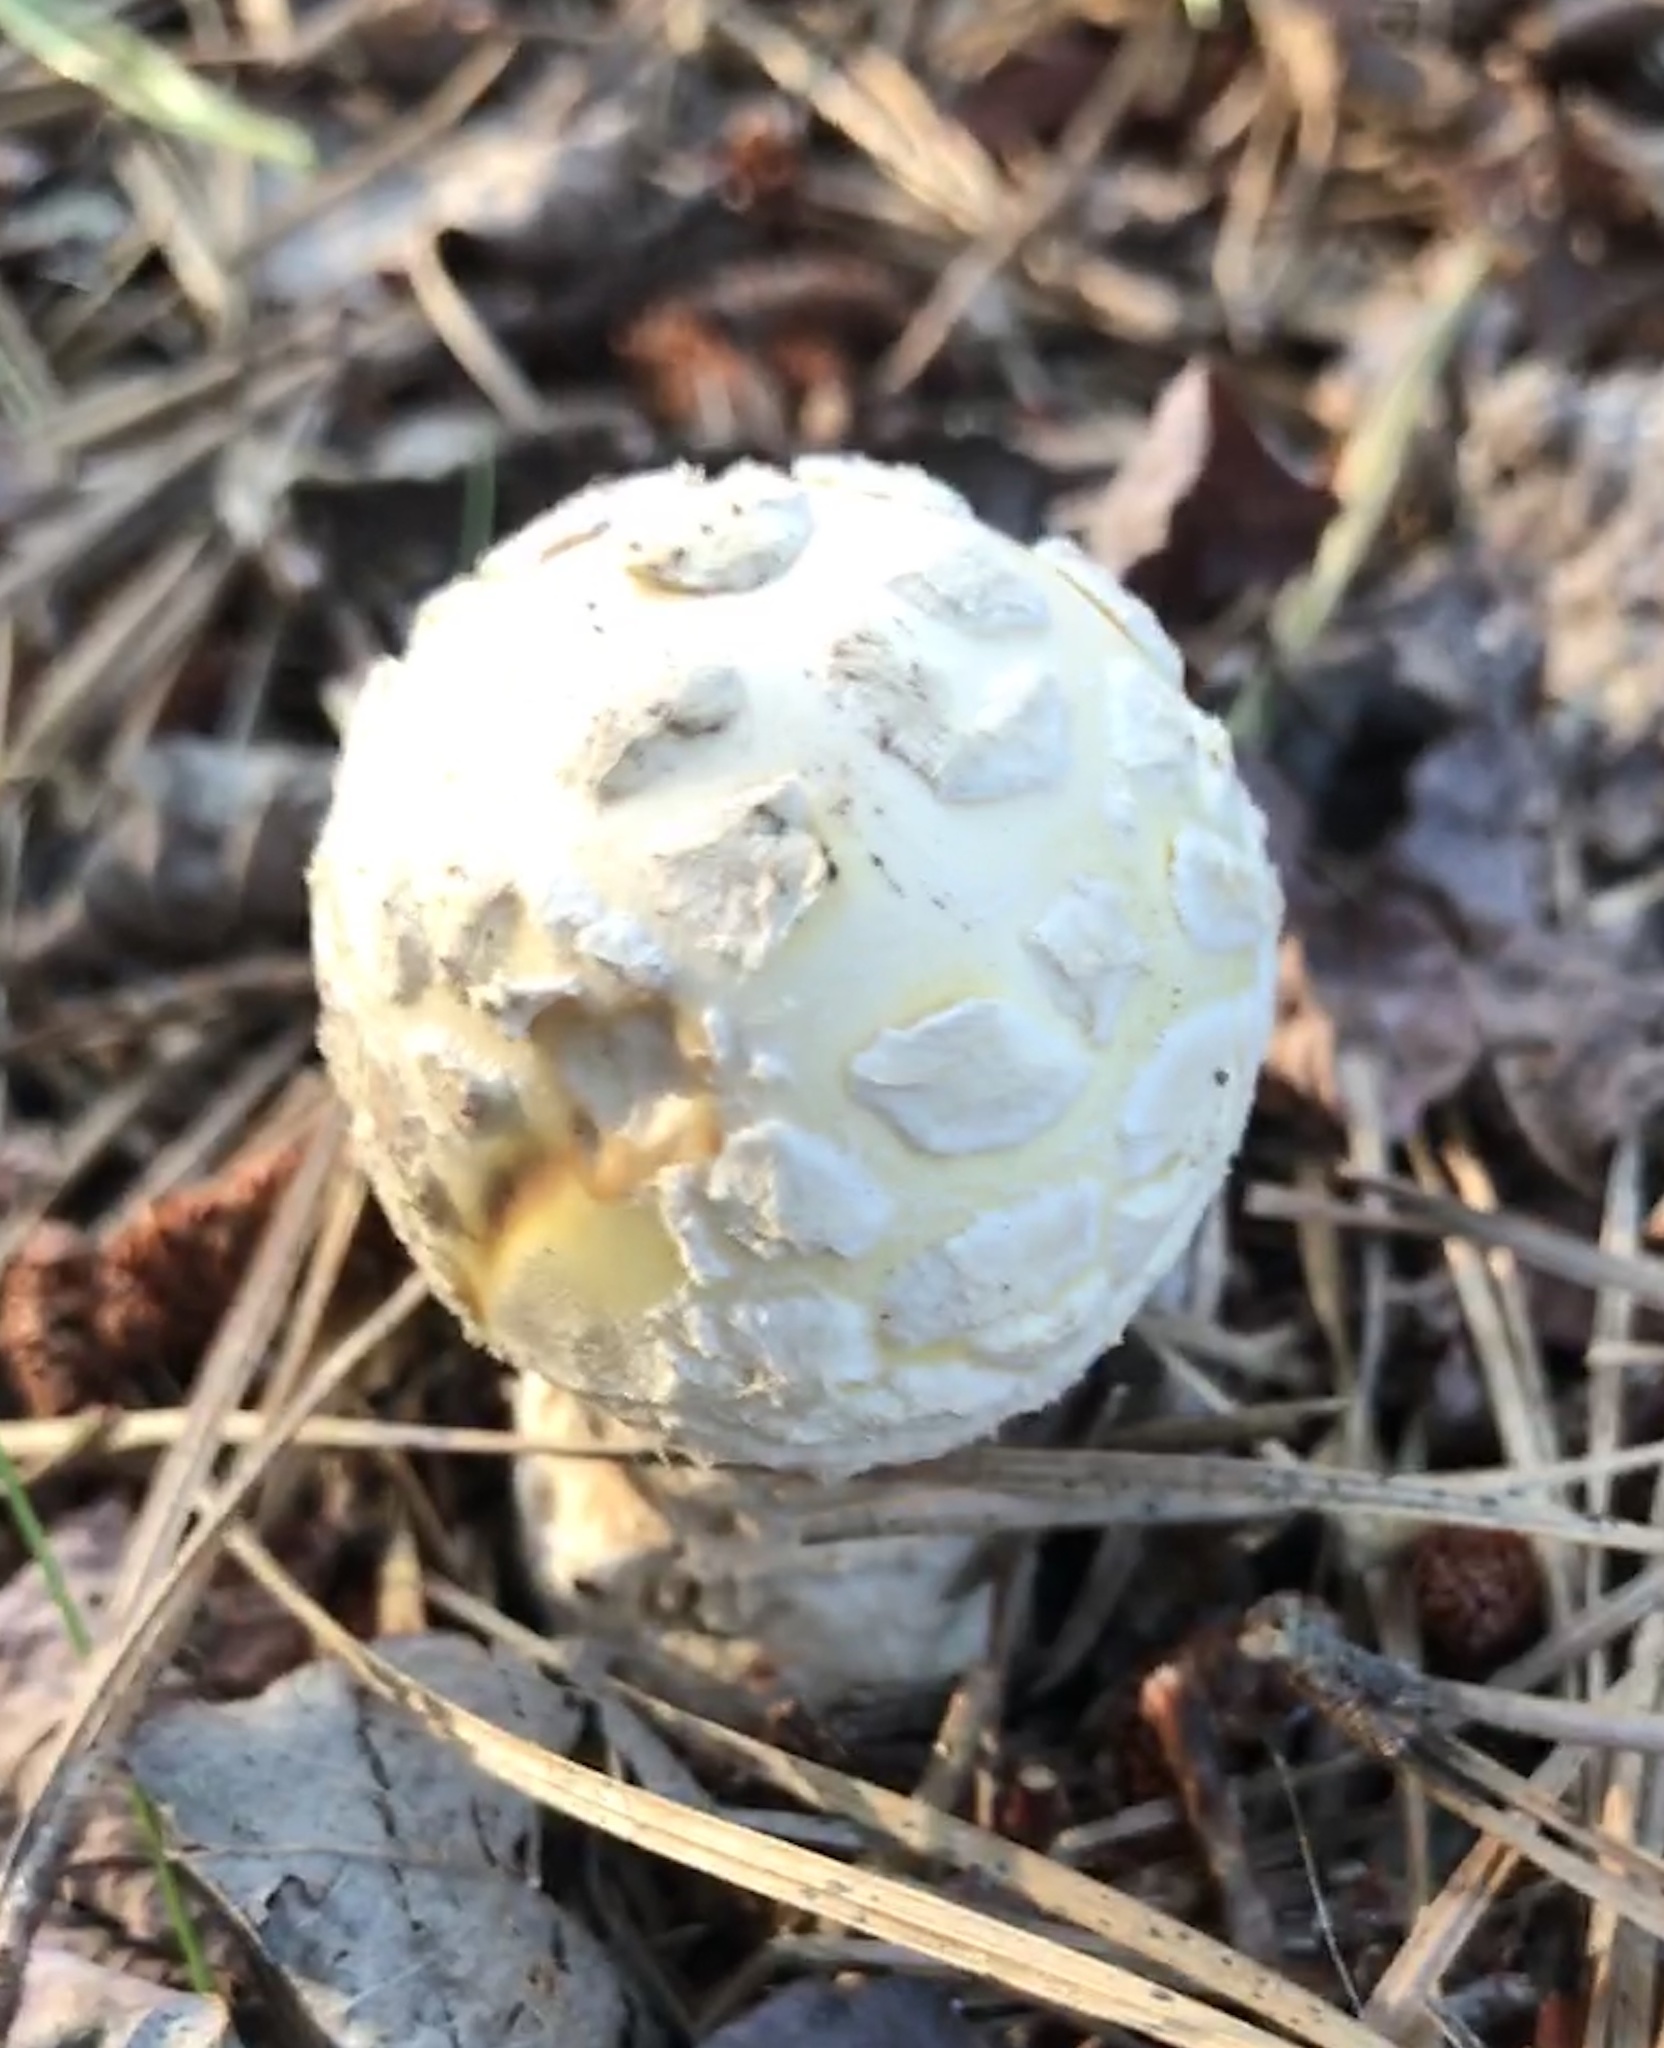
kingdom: Fungi
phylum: Basidiomycota
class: Agaricomycetes
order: Agaricales
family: Amanitaceae
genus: Amanita
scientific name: Amanita muscaria
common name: Fly agaric
